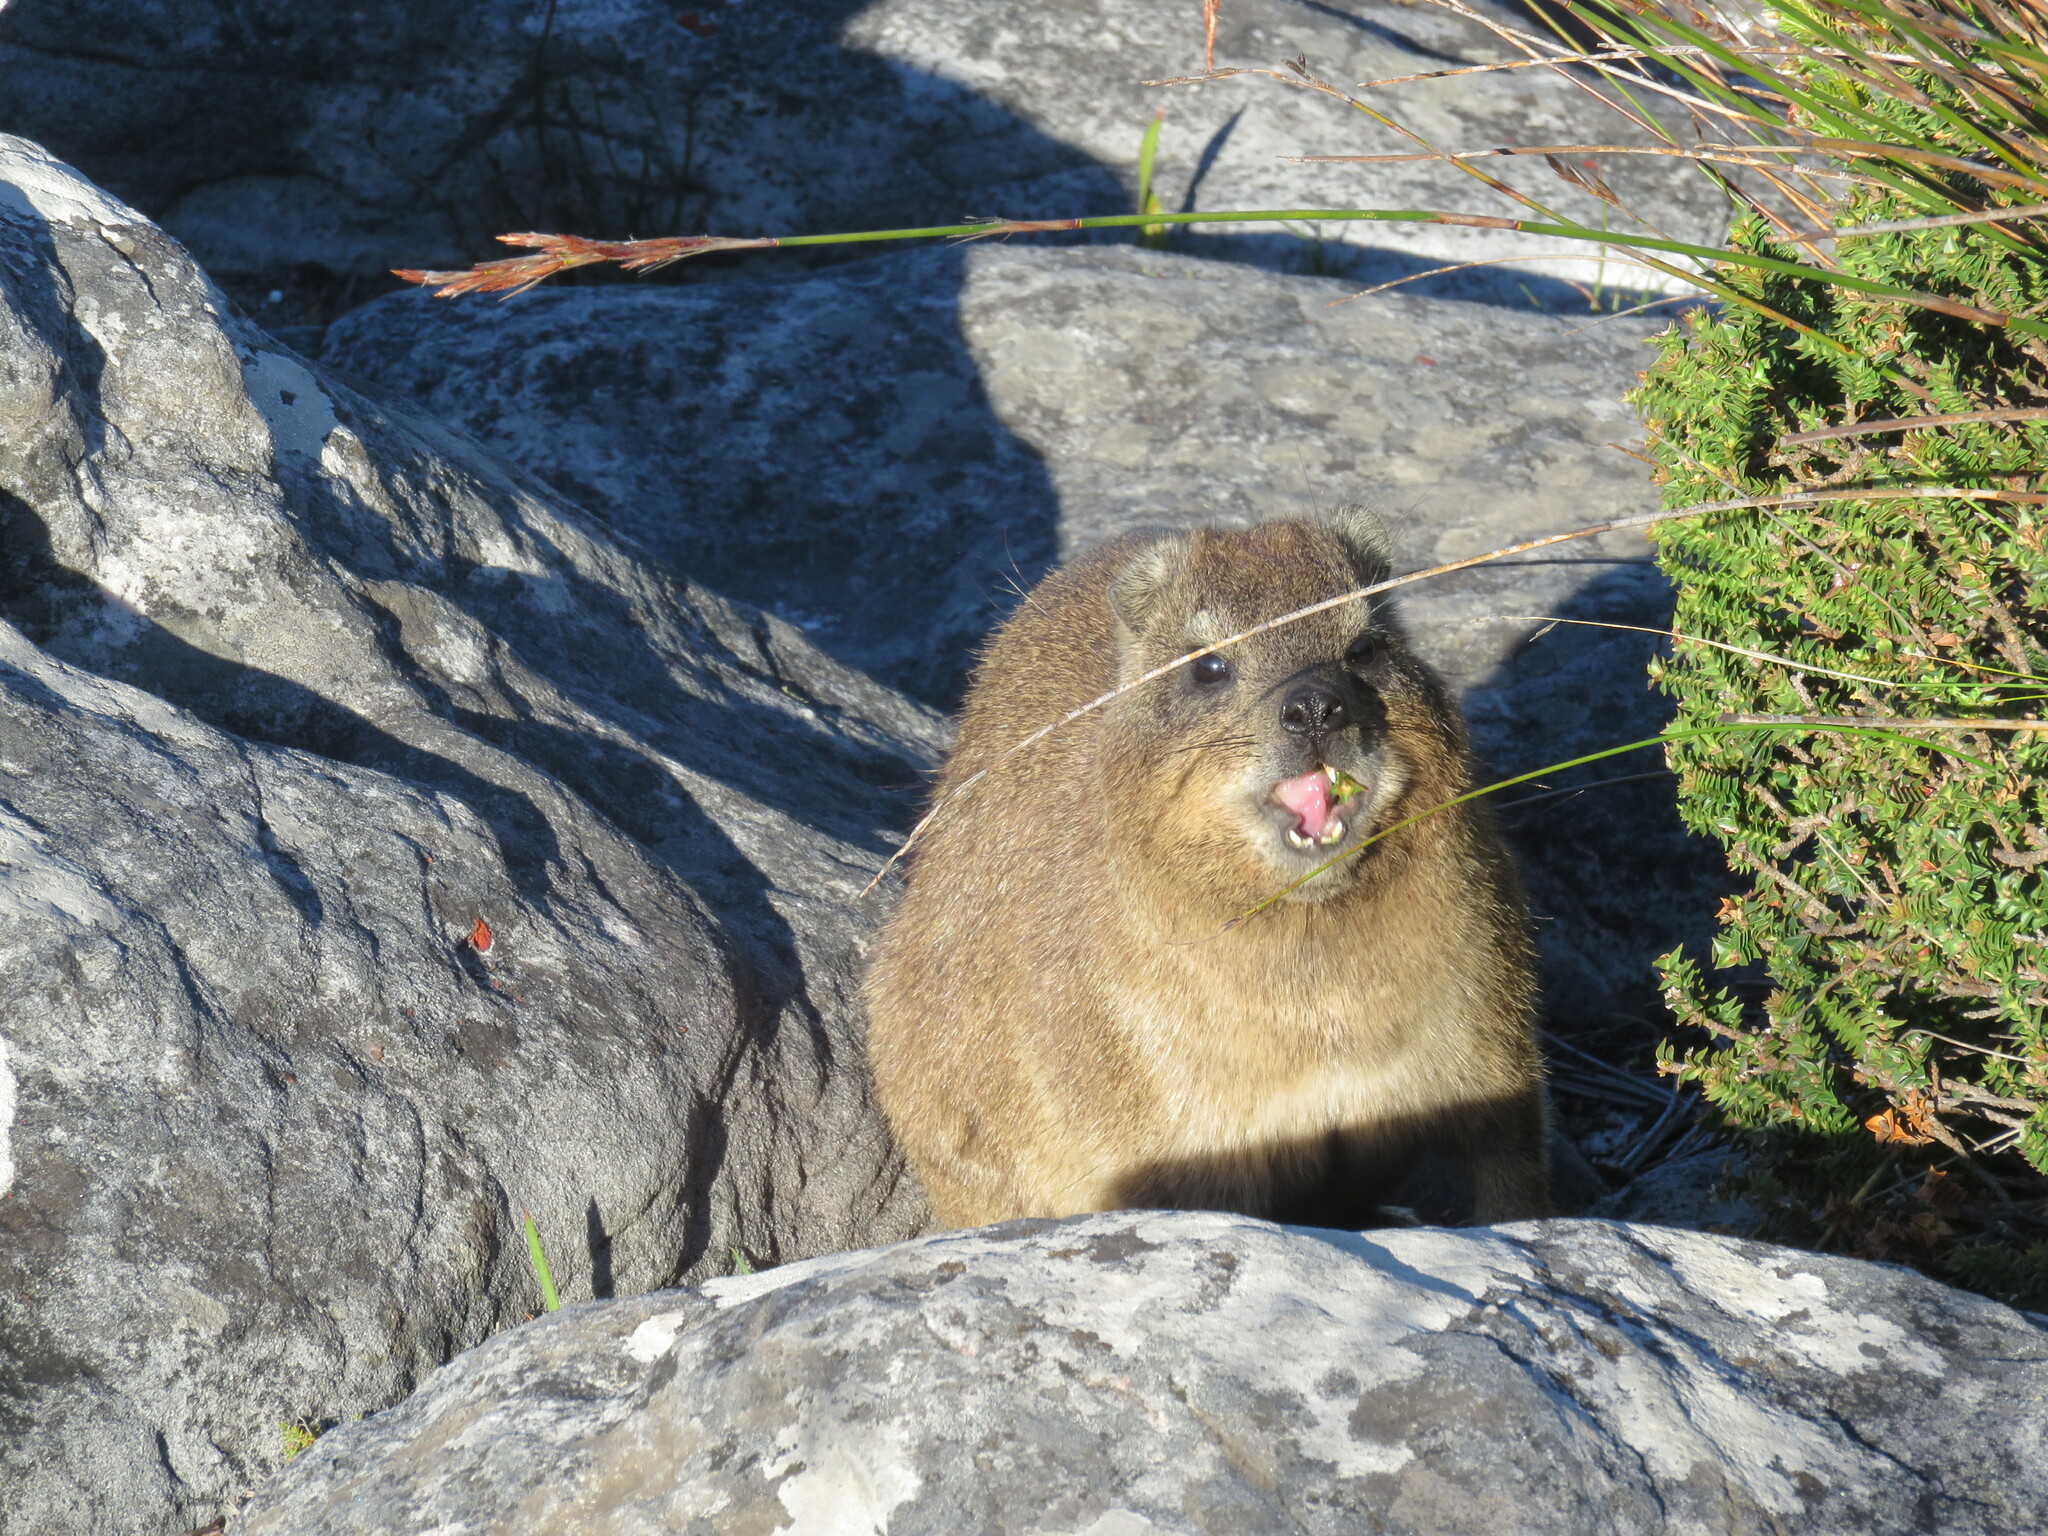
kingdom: Animalia
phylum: Chordata
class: Mammalia
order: Hyracoidea
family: Procaviidae
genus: Procavia
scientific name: Procavia capensis
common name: Rock hyrax
